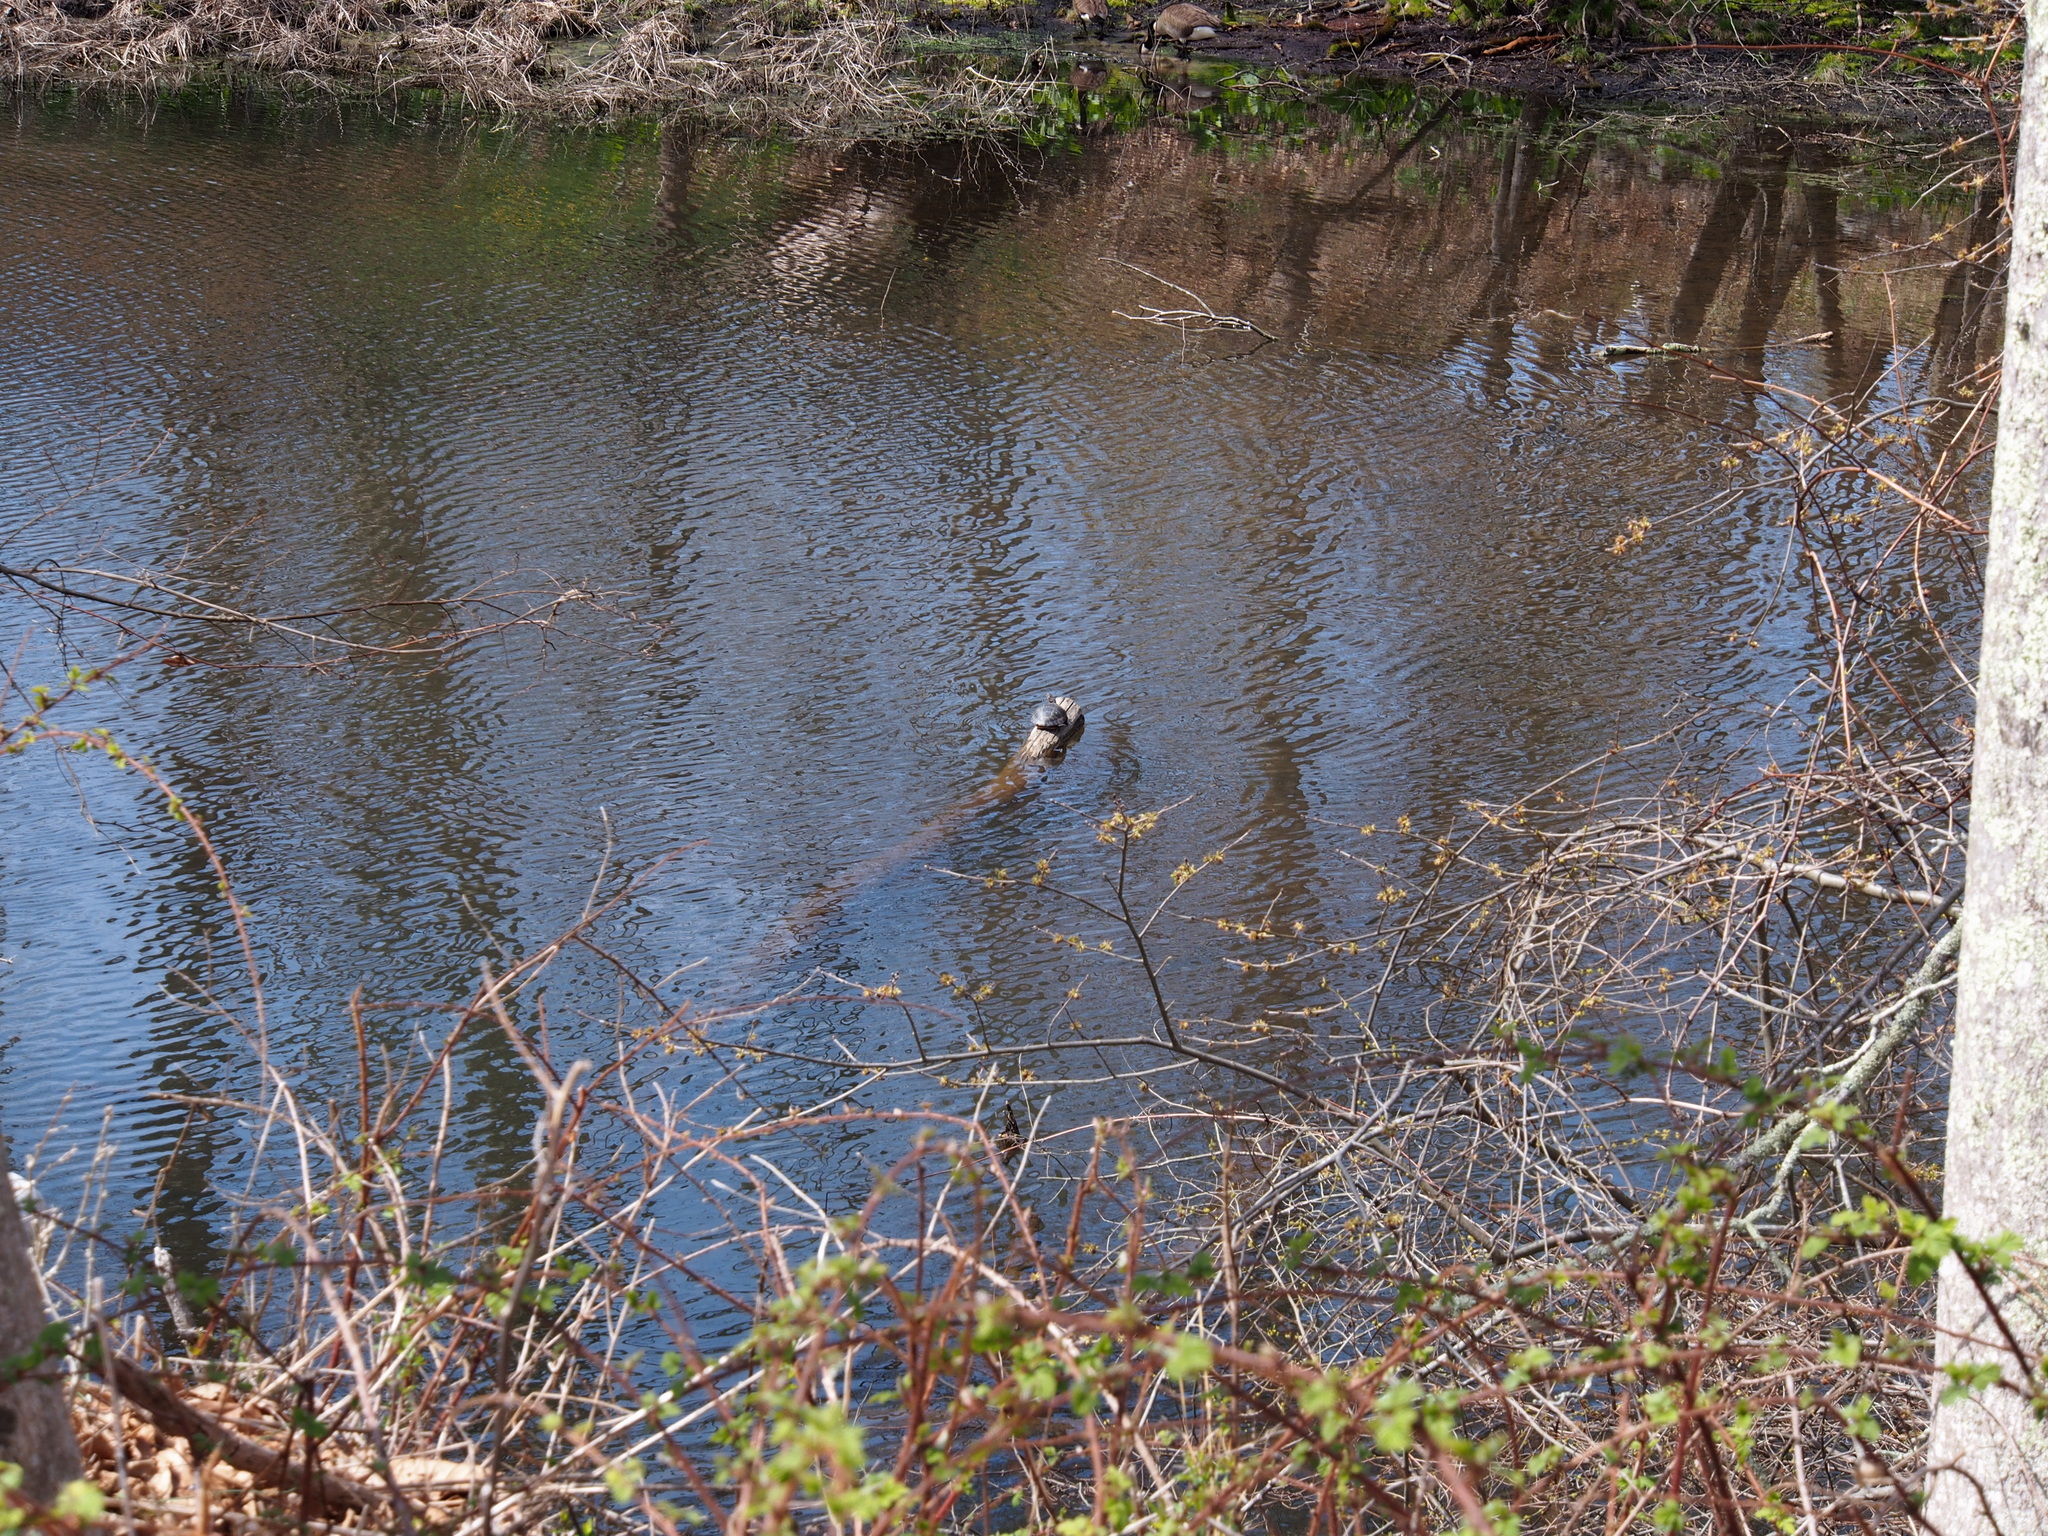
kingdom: Animalia
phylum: Chordata
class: Testudines
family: Emydidae
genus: Chrysemys
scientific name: Chrysemys picta
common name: Painted turtle
